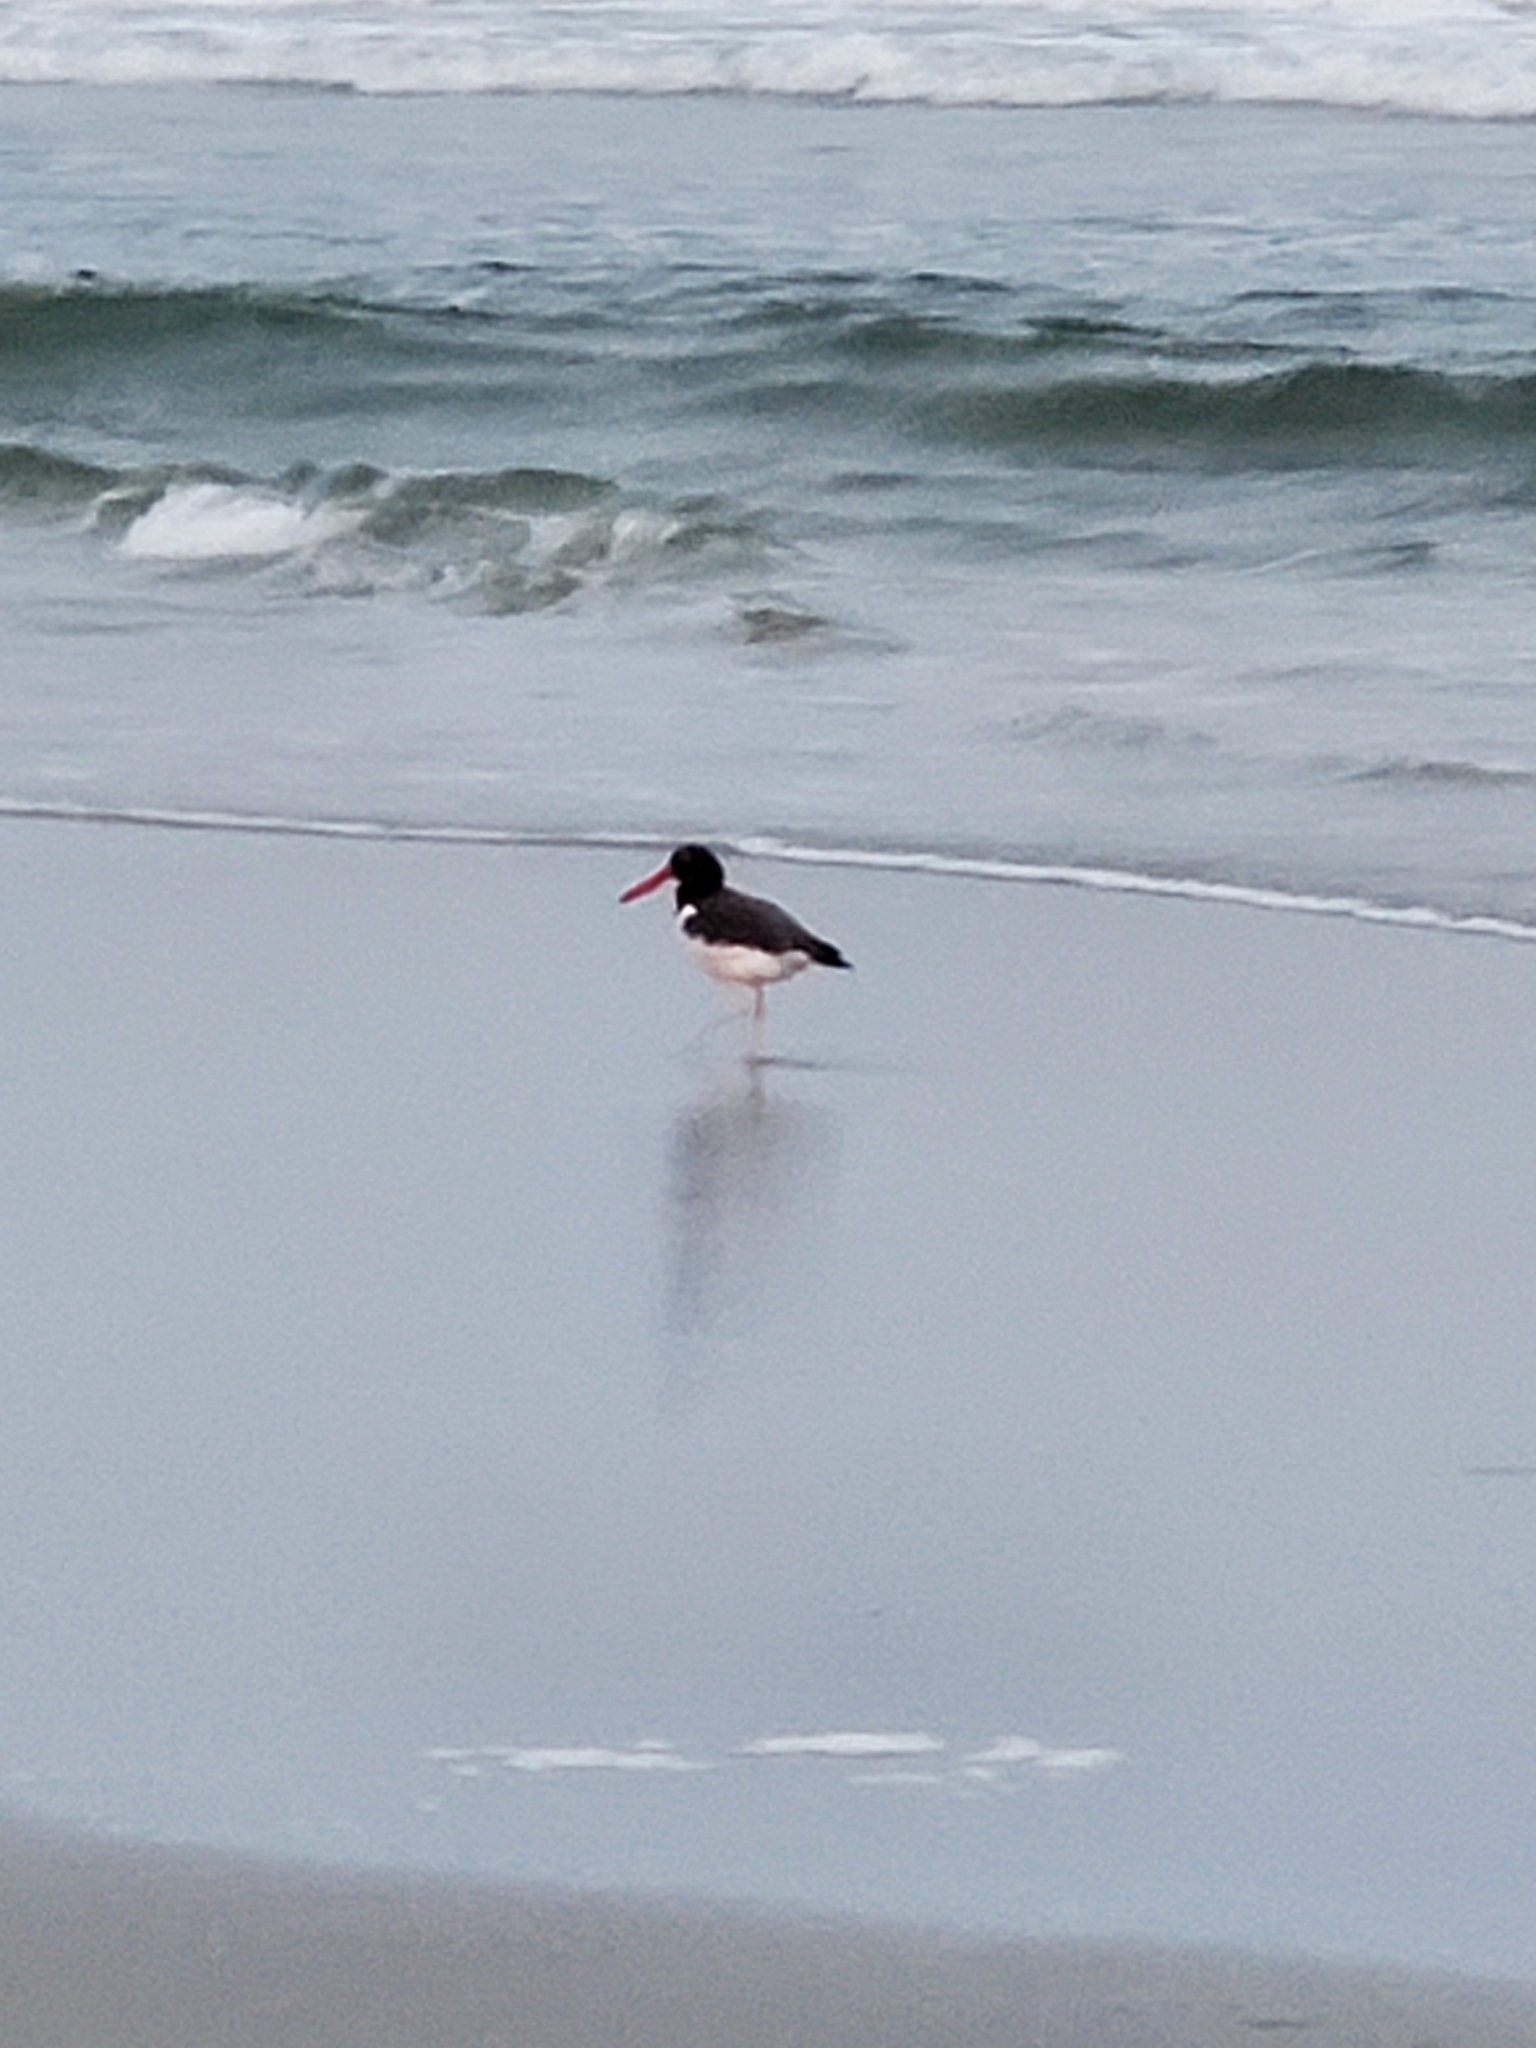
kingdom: Animalia
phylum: Chordata
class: Aves
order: Charadriiformes
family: Haematopodidae
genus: Haematopus
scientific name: Haematopus palliatus
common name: American oystercatcher
